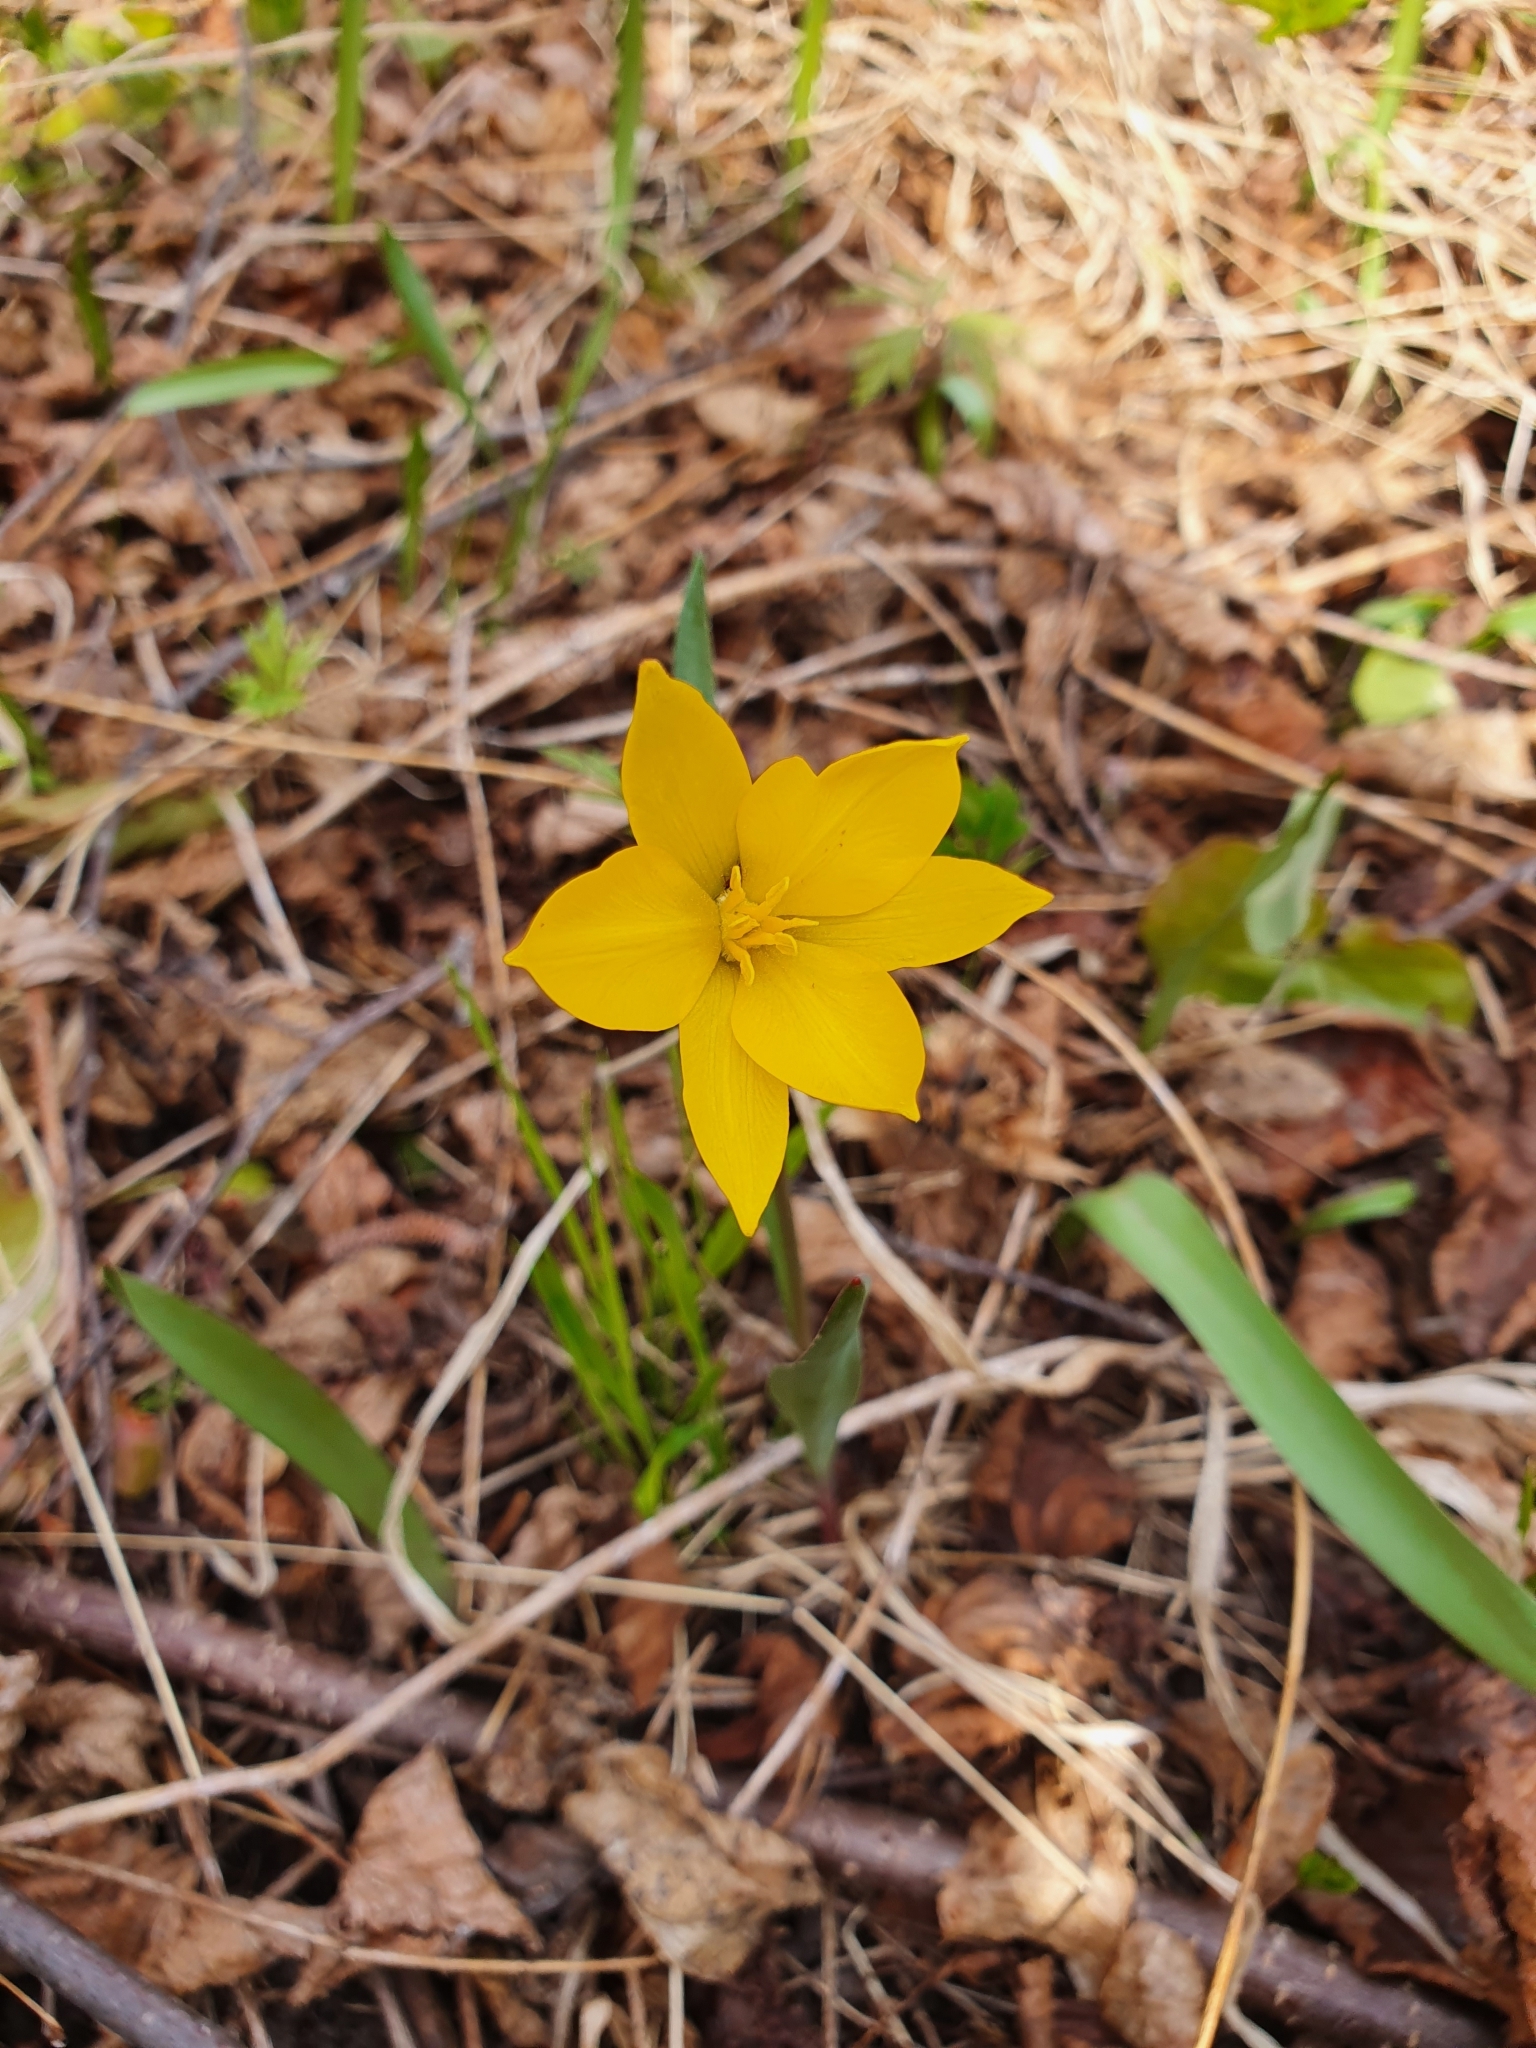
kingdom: Plantae
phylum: Tracheophyta
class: Liliopsida
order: Liliales
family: Liliaceae
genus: Tulipa
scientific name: Tulipa sylvestris
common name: Wild tulip
